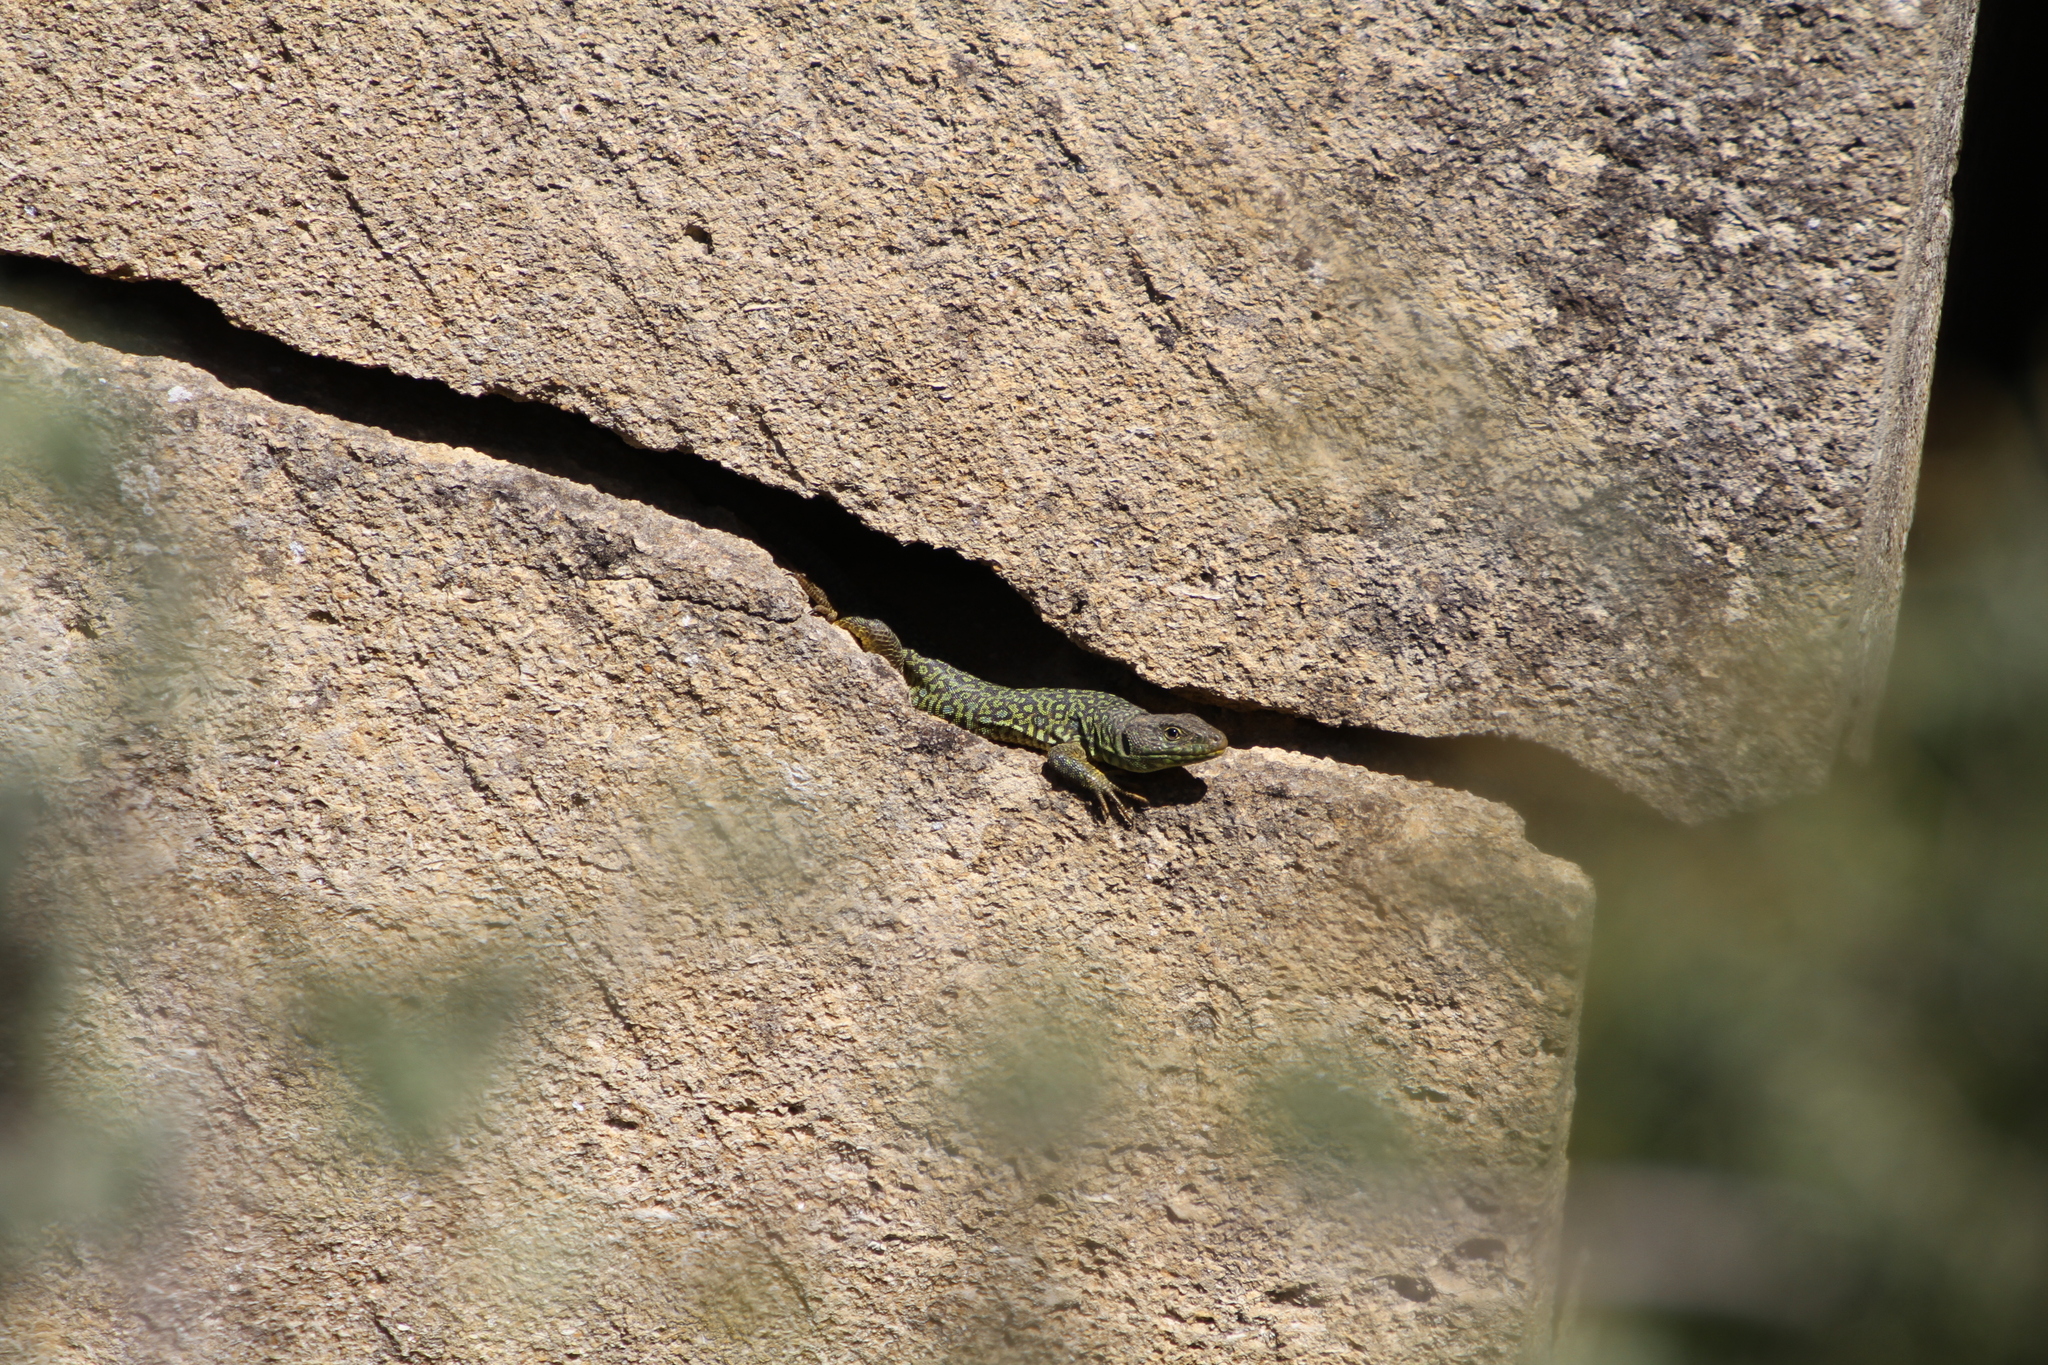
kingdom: Animalia
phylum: Chordata
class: Squamata
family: Lacertidae
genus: Timon
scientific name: Timon lepidus
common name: Ocellated lizard
